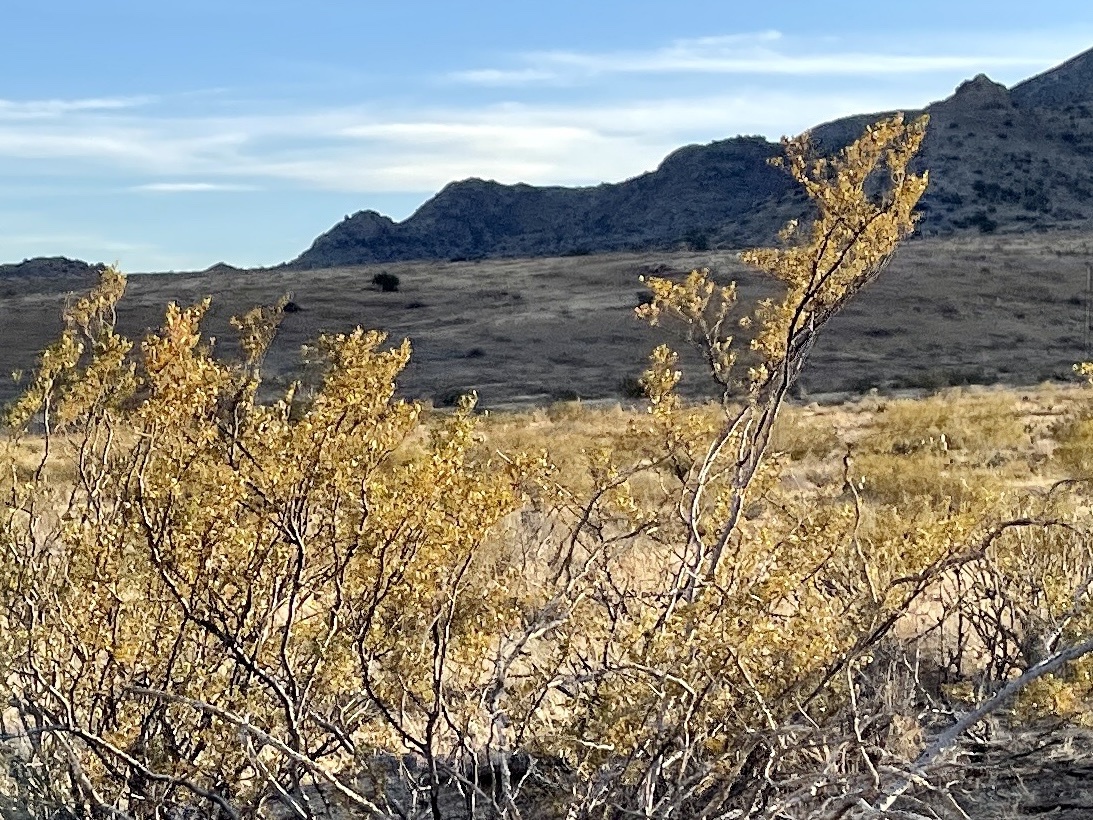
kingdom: Plantae
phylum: Tracheophyta
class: Magnoliopsida
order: Zygophyllales
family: Zygophyllaceae
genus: Larrea
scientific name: Larrea tridentata
